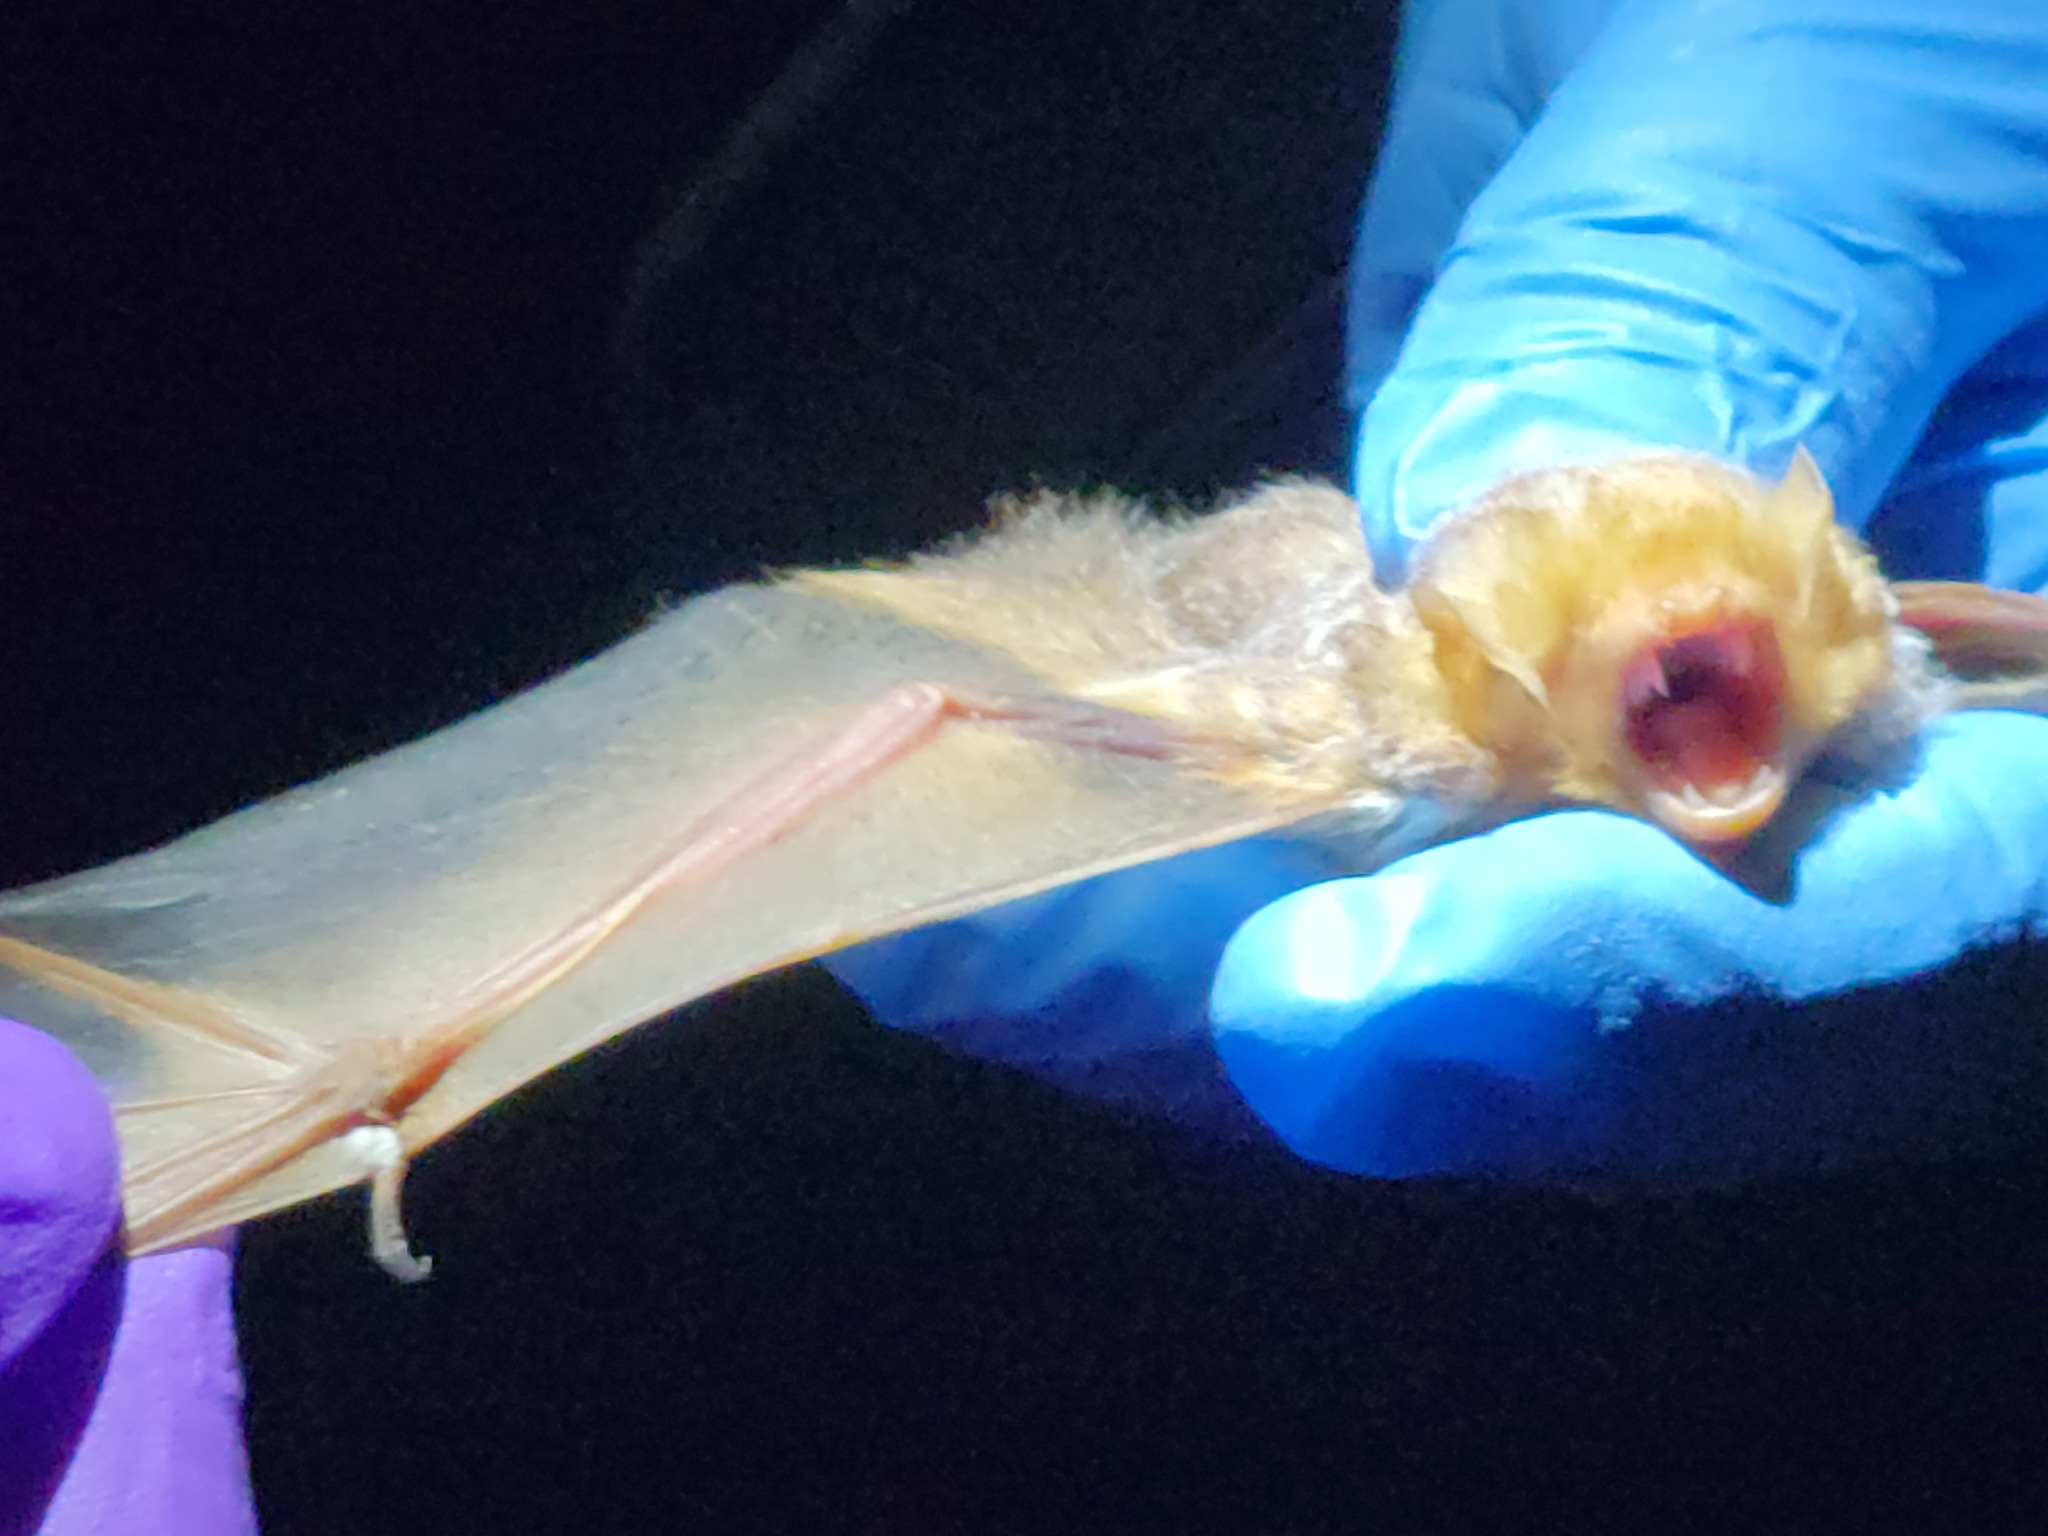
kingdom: Animalia
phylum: Chordata
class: Mammalia
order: Chiroptera
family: Vespertilionidae
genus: Lasiurus
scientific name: Lasiurus borealis
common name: Eastern red bat
